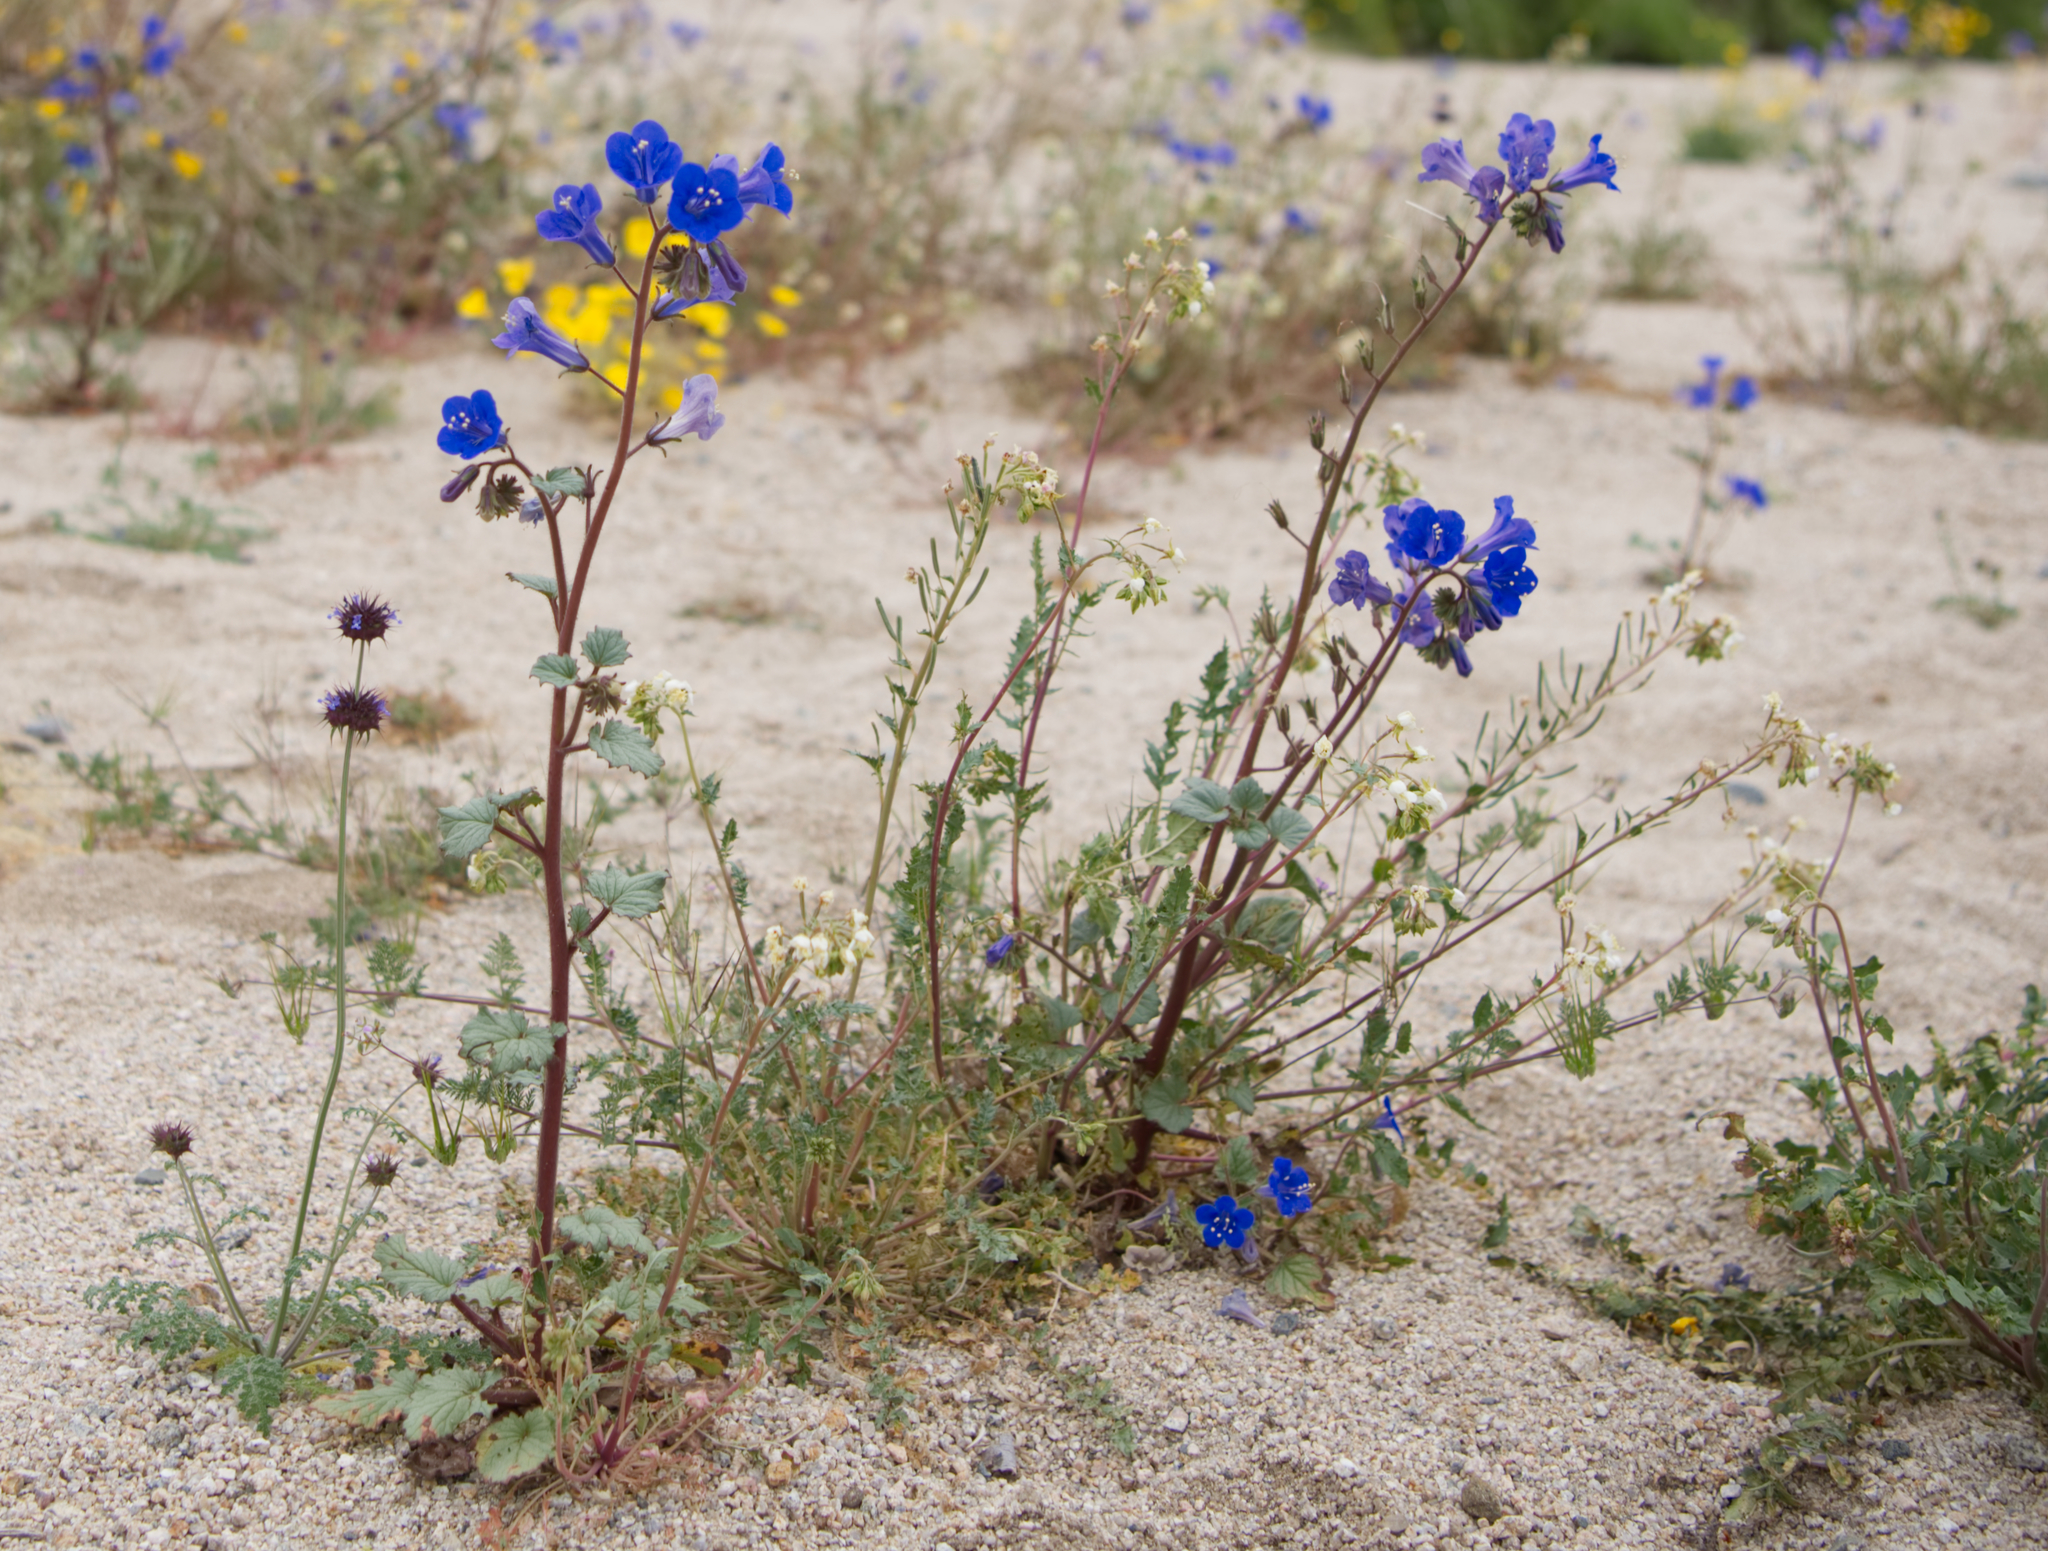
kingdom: Plantae
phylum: Tracheophyta
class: Magnoliopsida
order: Boraginales
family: Hydrophyllaceae
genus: Phacelia
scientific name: Phacelia campanularia
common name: California bluebell
